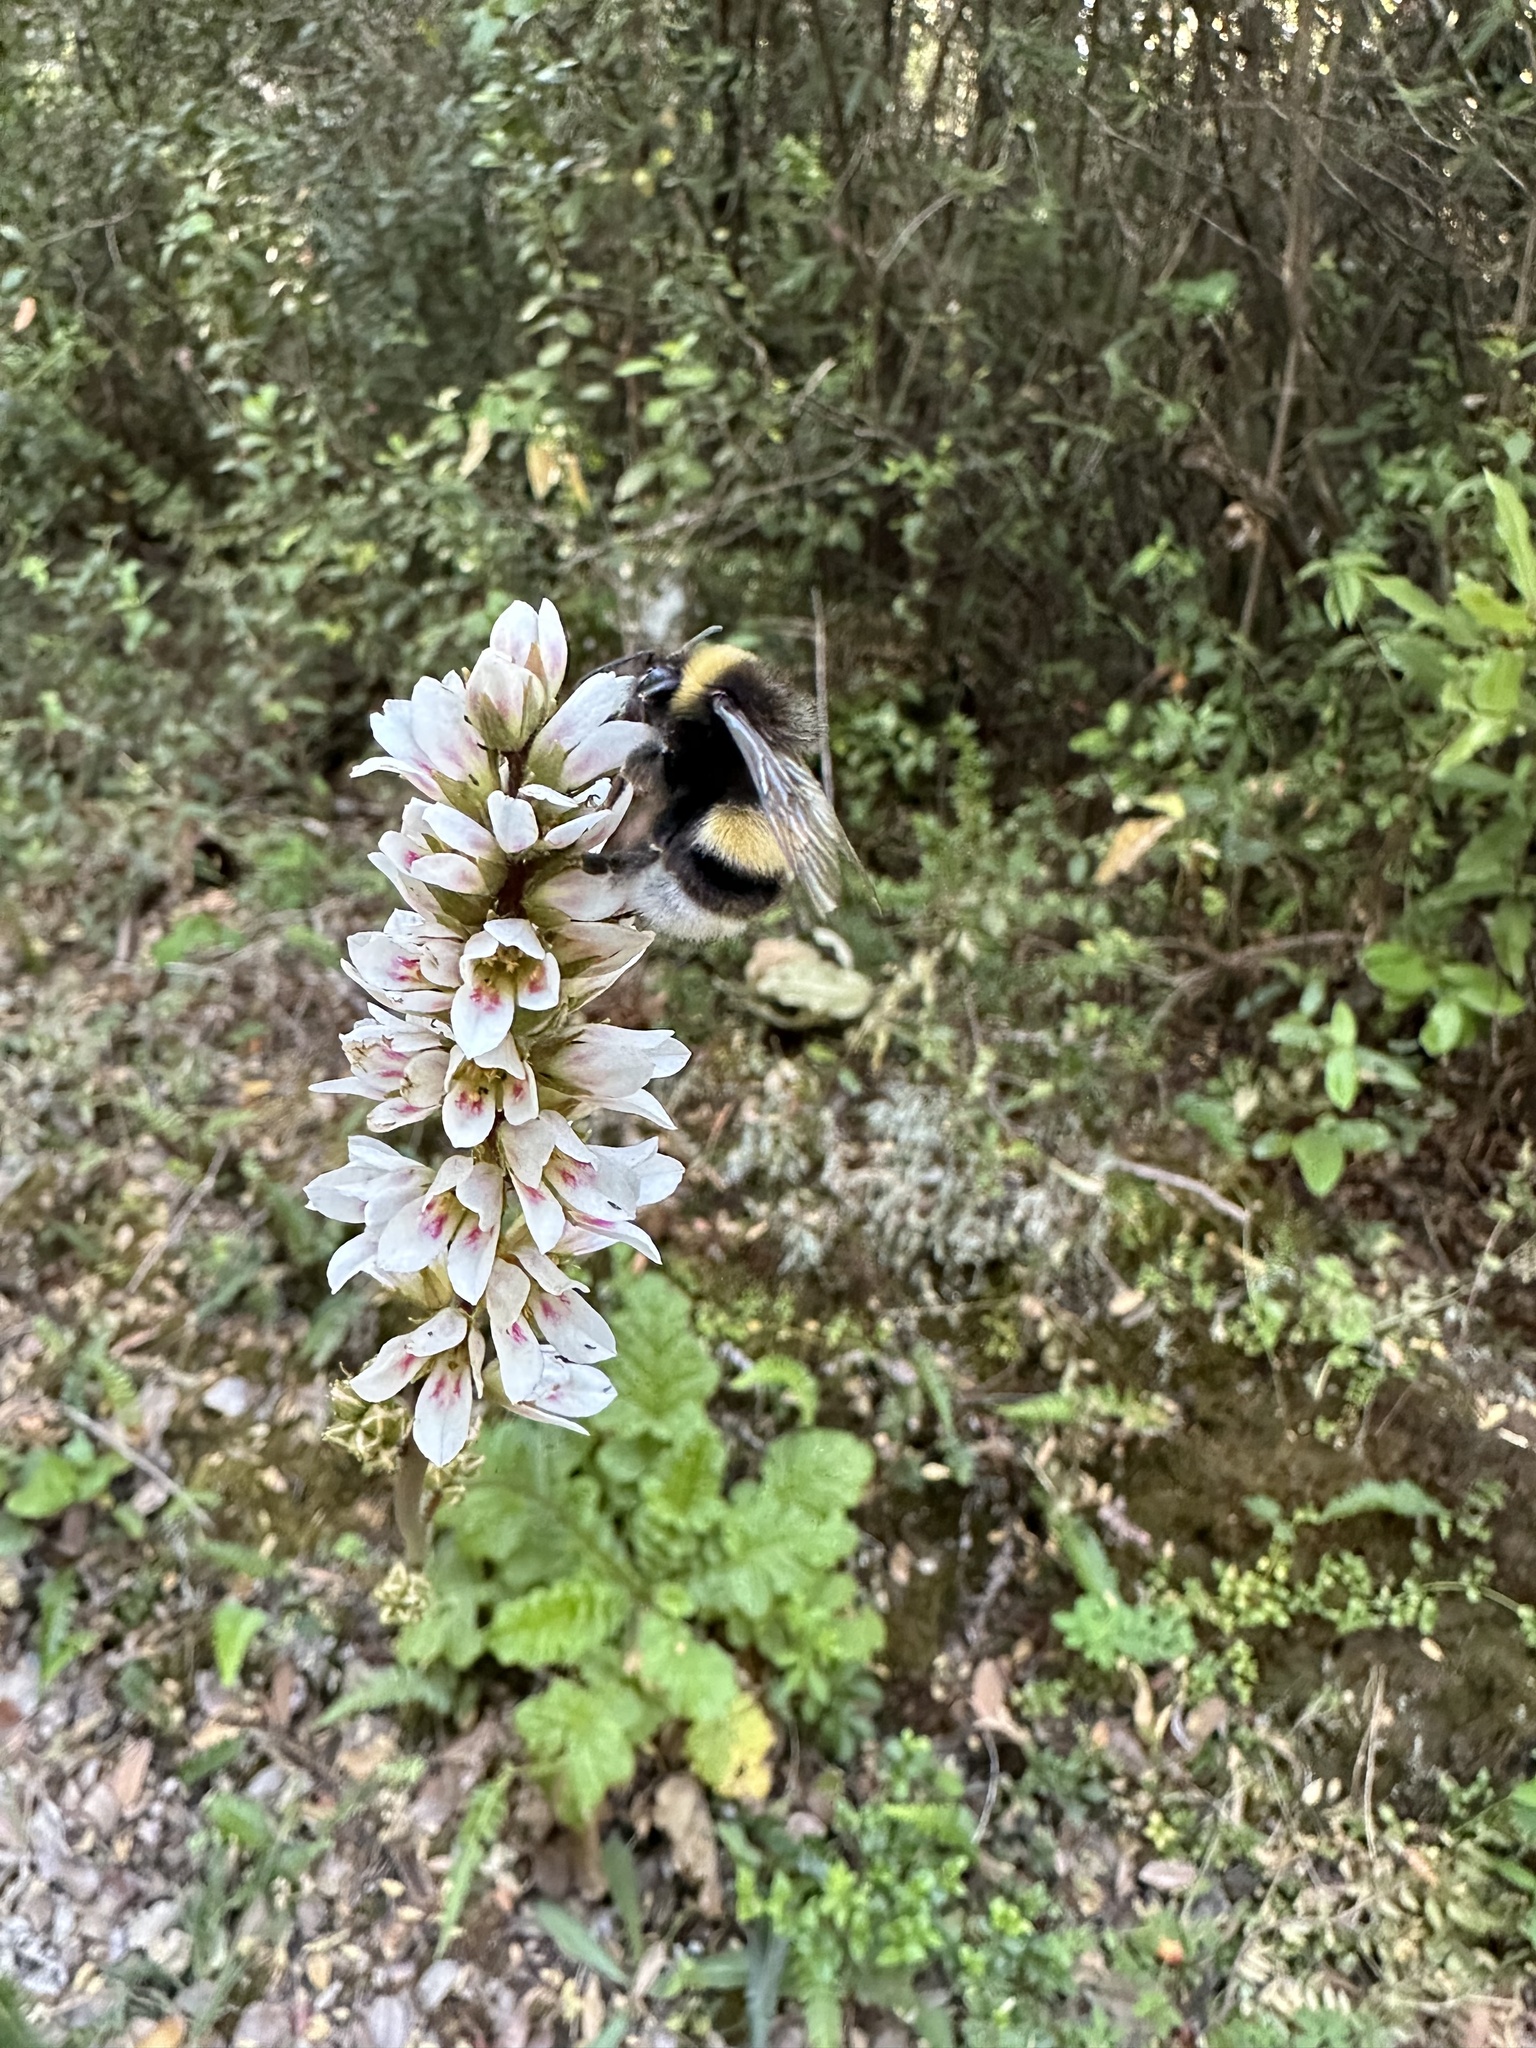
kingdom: Animalia
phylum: Arthropoda
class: Insecta
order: Hymenoptera
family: Apidae
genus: Bombus
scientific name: Bombus terrestris
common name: Buff-tailed bumblebee
